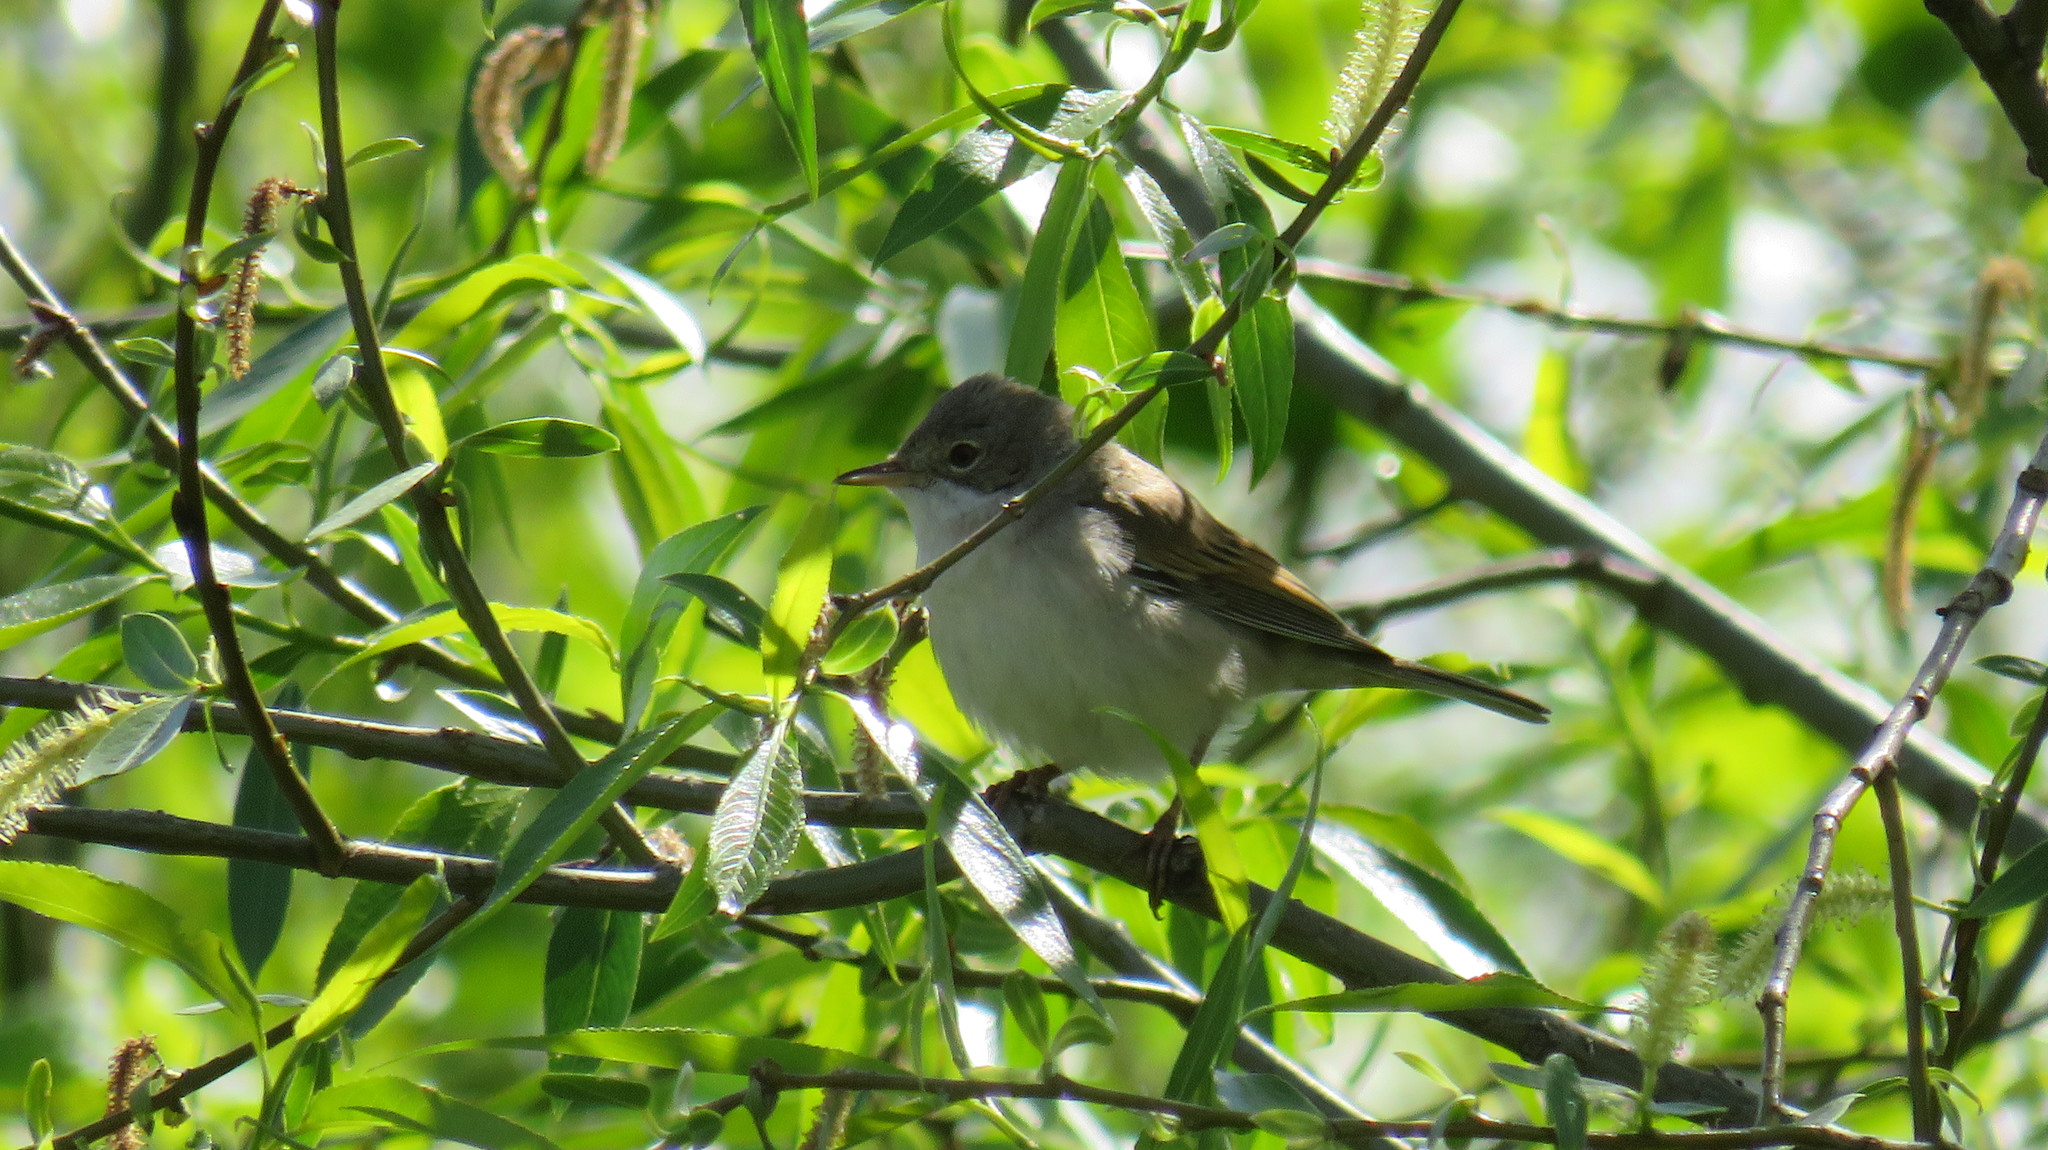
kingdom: Animalia
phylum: Chordata
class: Aves
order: Passeriformes
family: Sylviidae
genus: Sylvia
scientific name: Sylvia communis
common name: Common whitethroat
